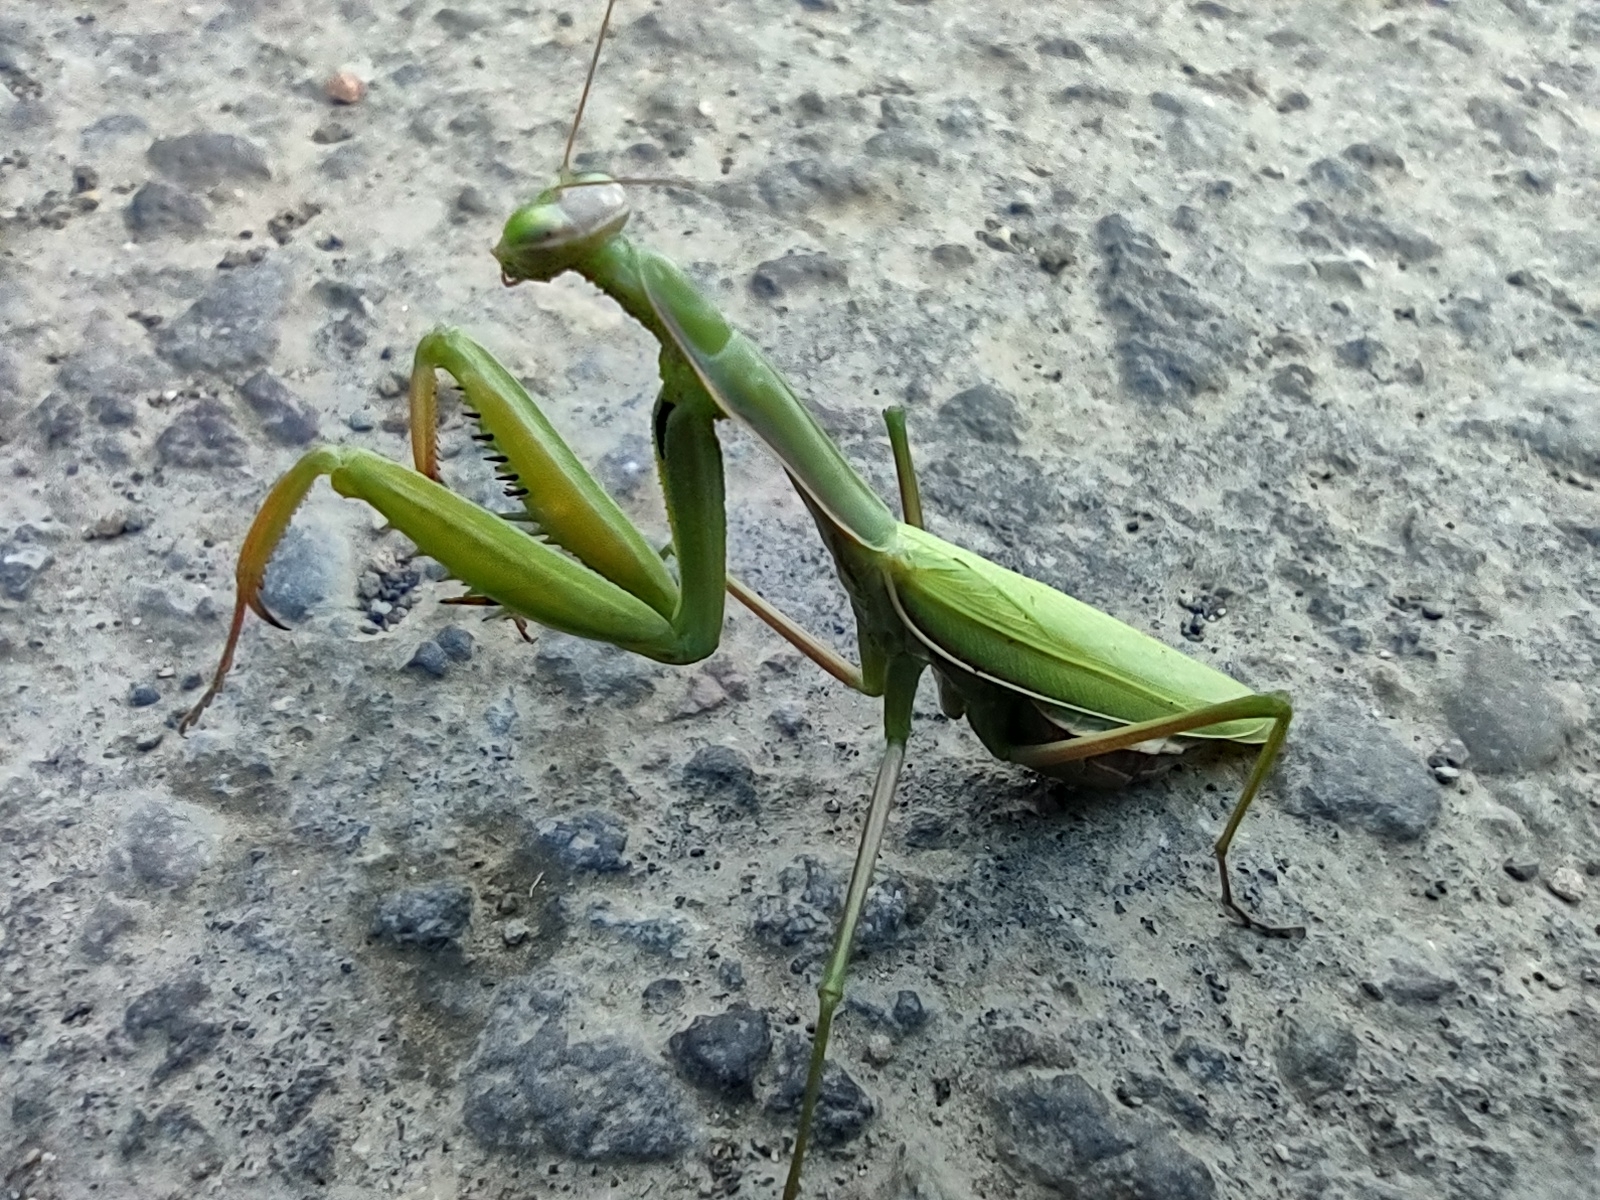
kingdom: Animalia
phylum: Arthropoda
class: Insecta
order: Mantodea
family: Mantidae
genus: Mantis
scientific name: Mantis religiosa
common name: Praying mantis
